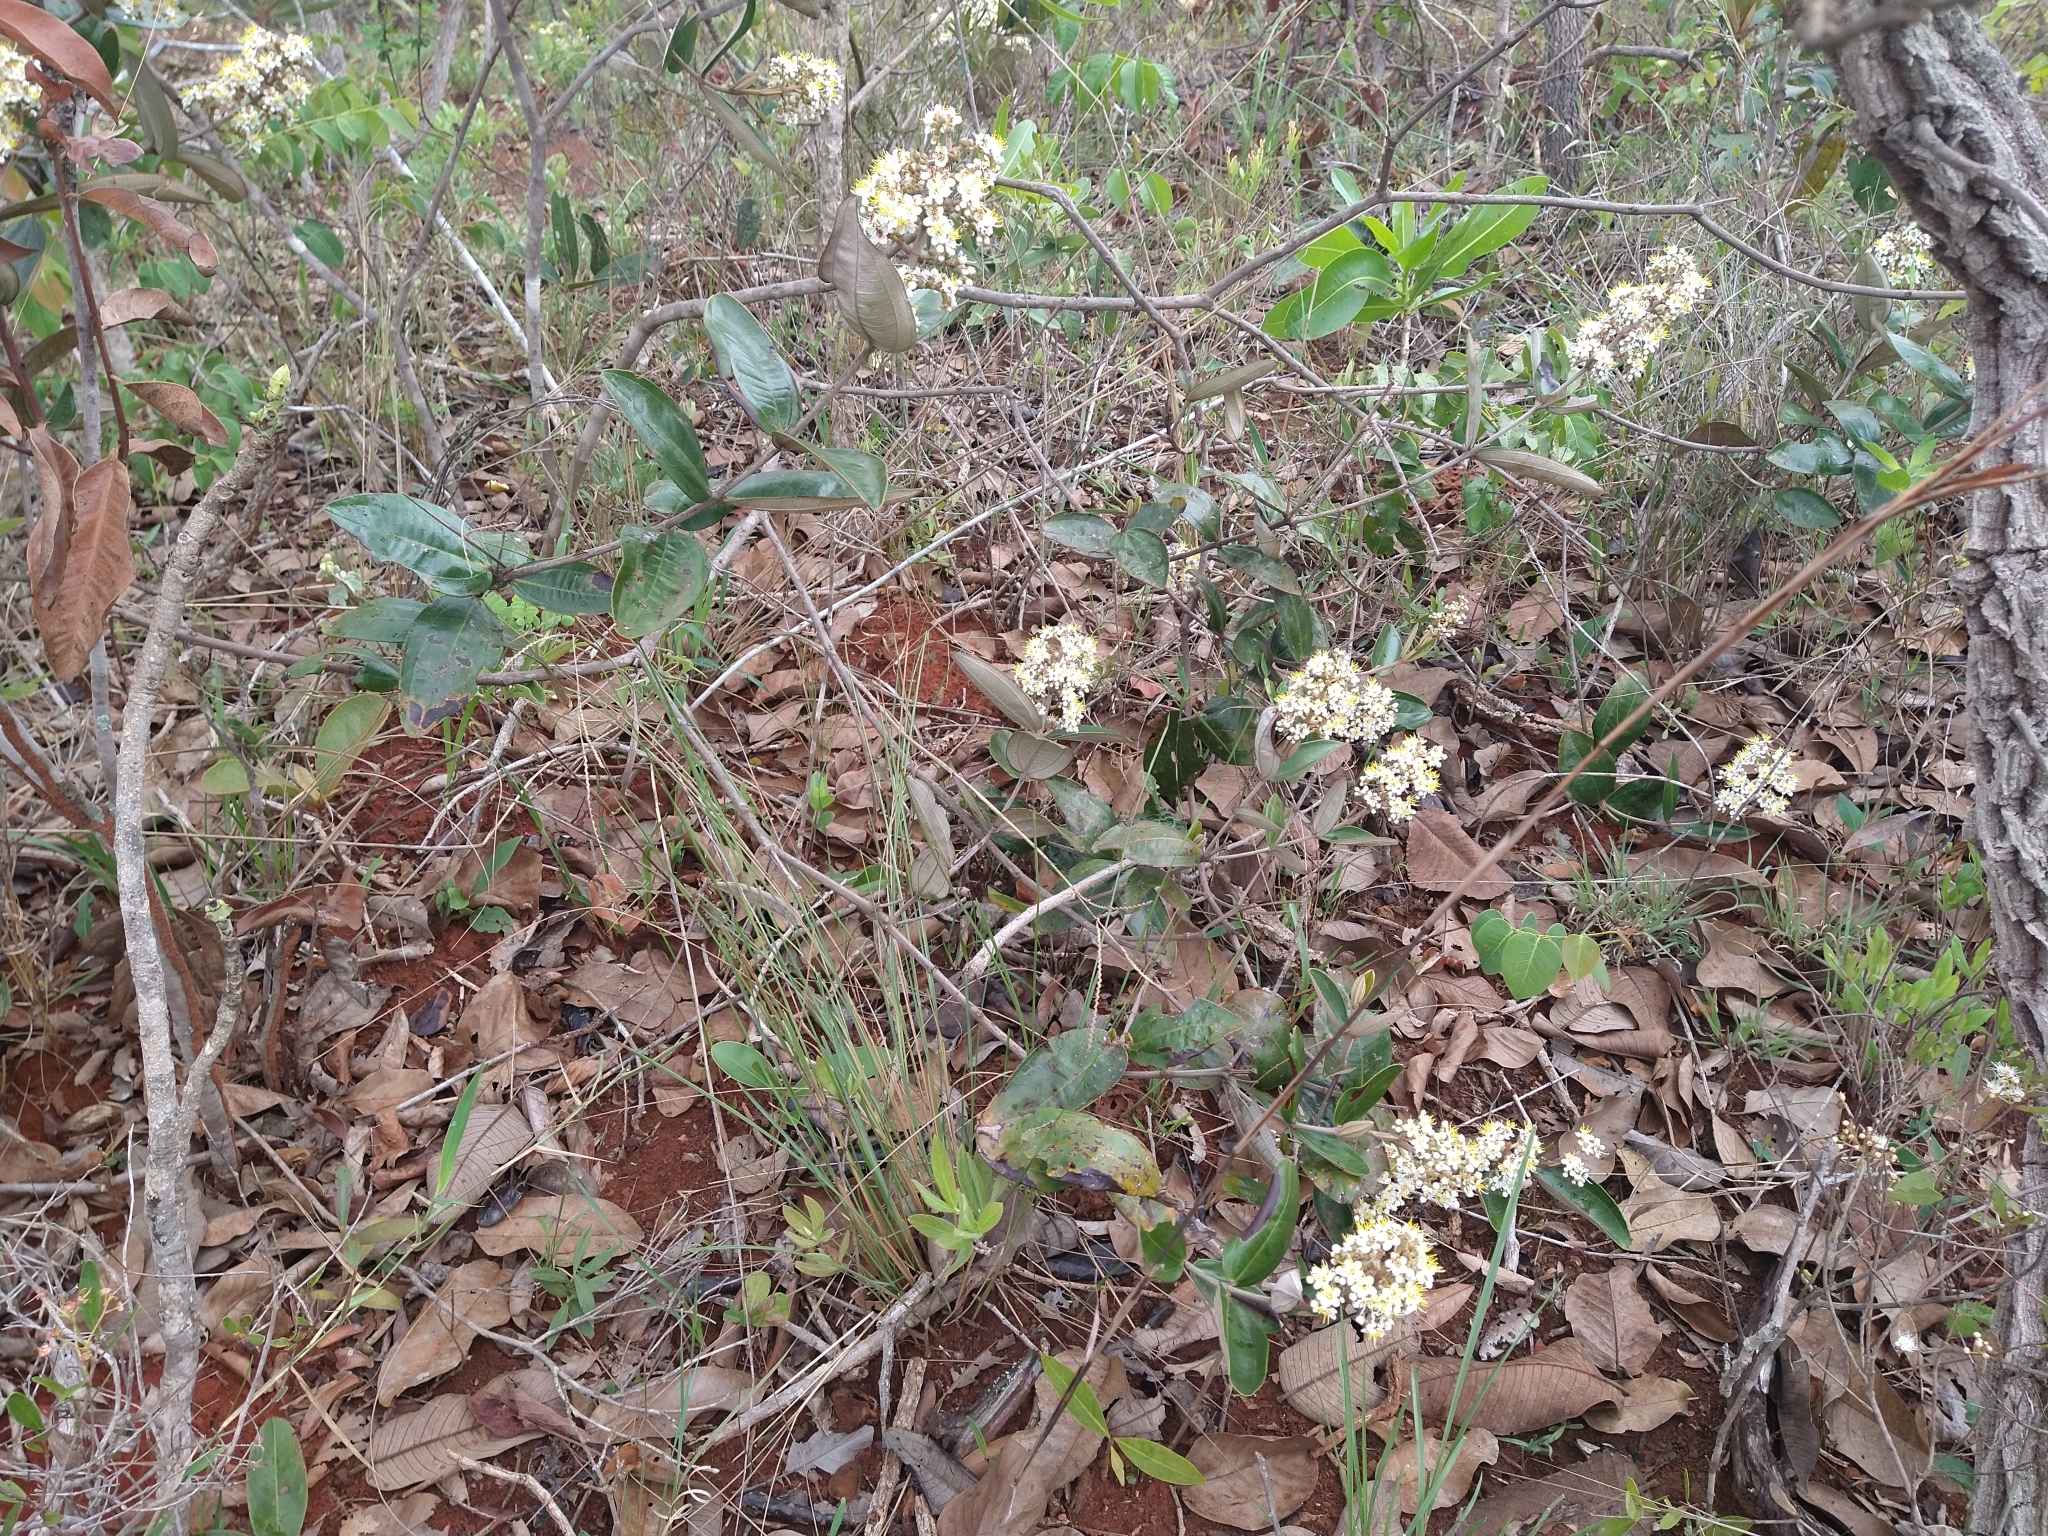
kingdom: Plantae
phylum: Tracheophyta
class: Magnoliopsida
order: Myrtales
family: Melastomataceae
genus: Miconia
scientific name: Miconia albicans
